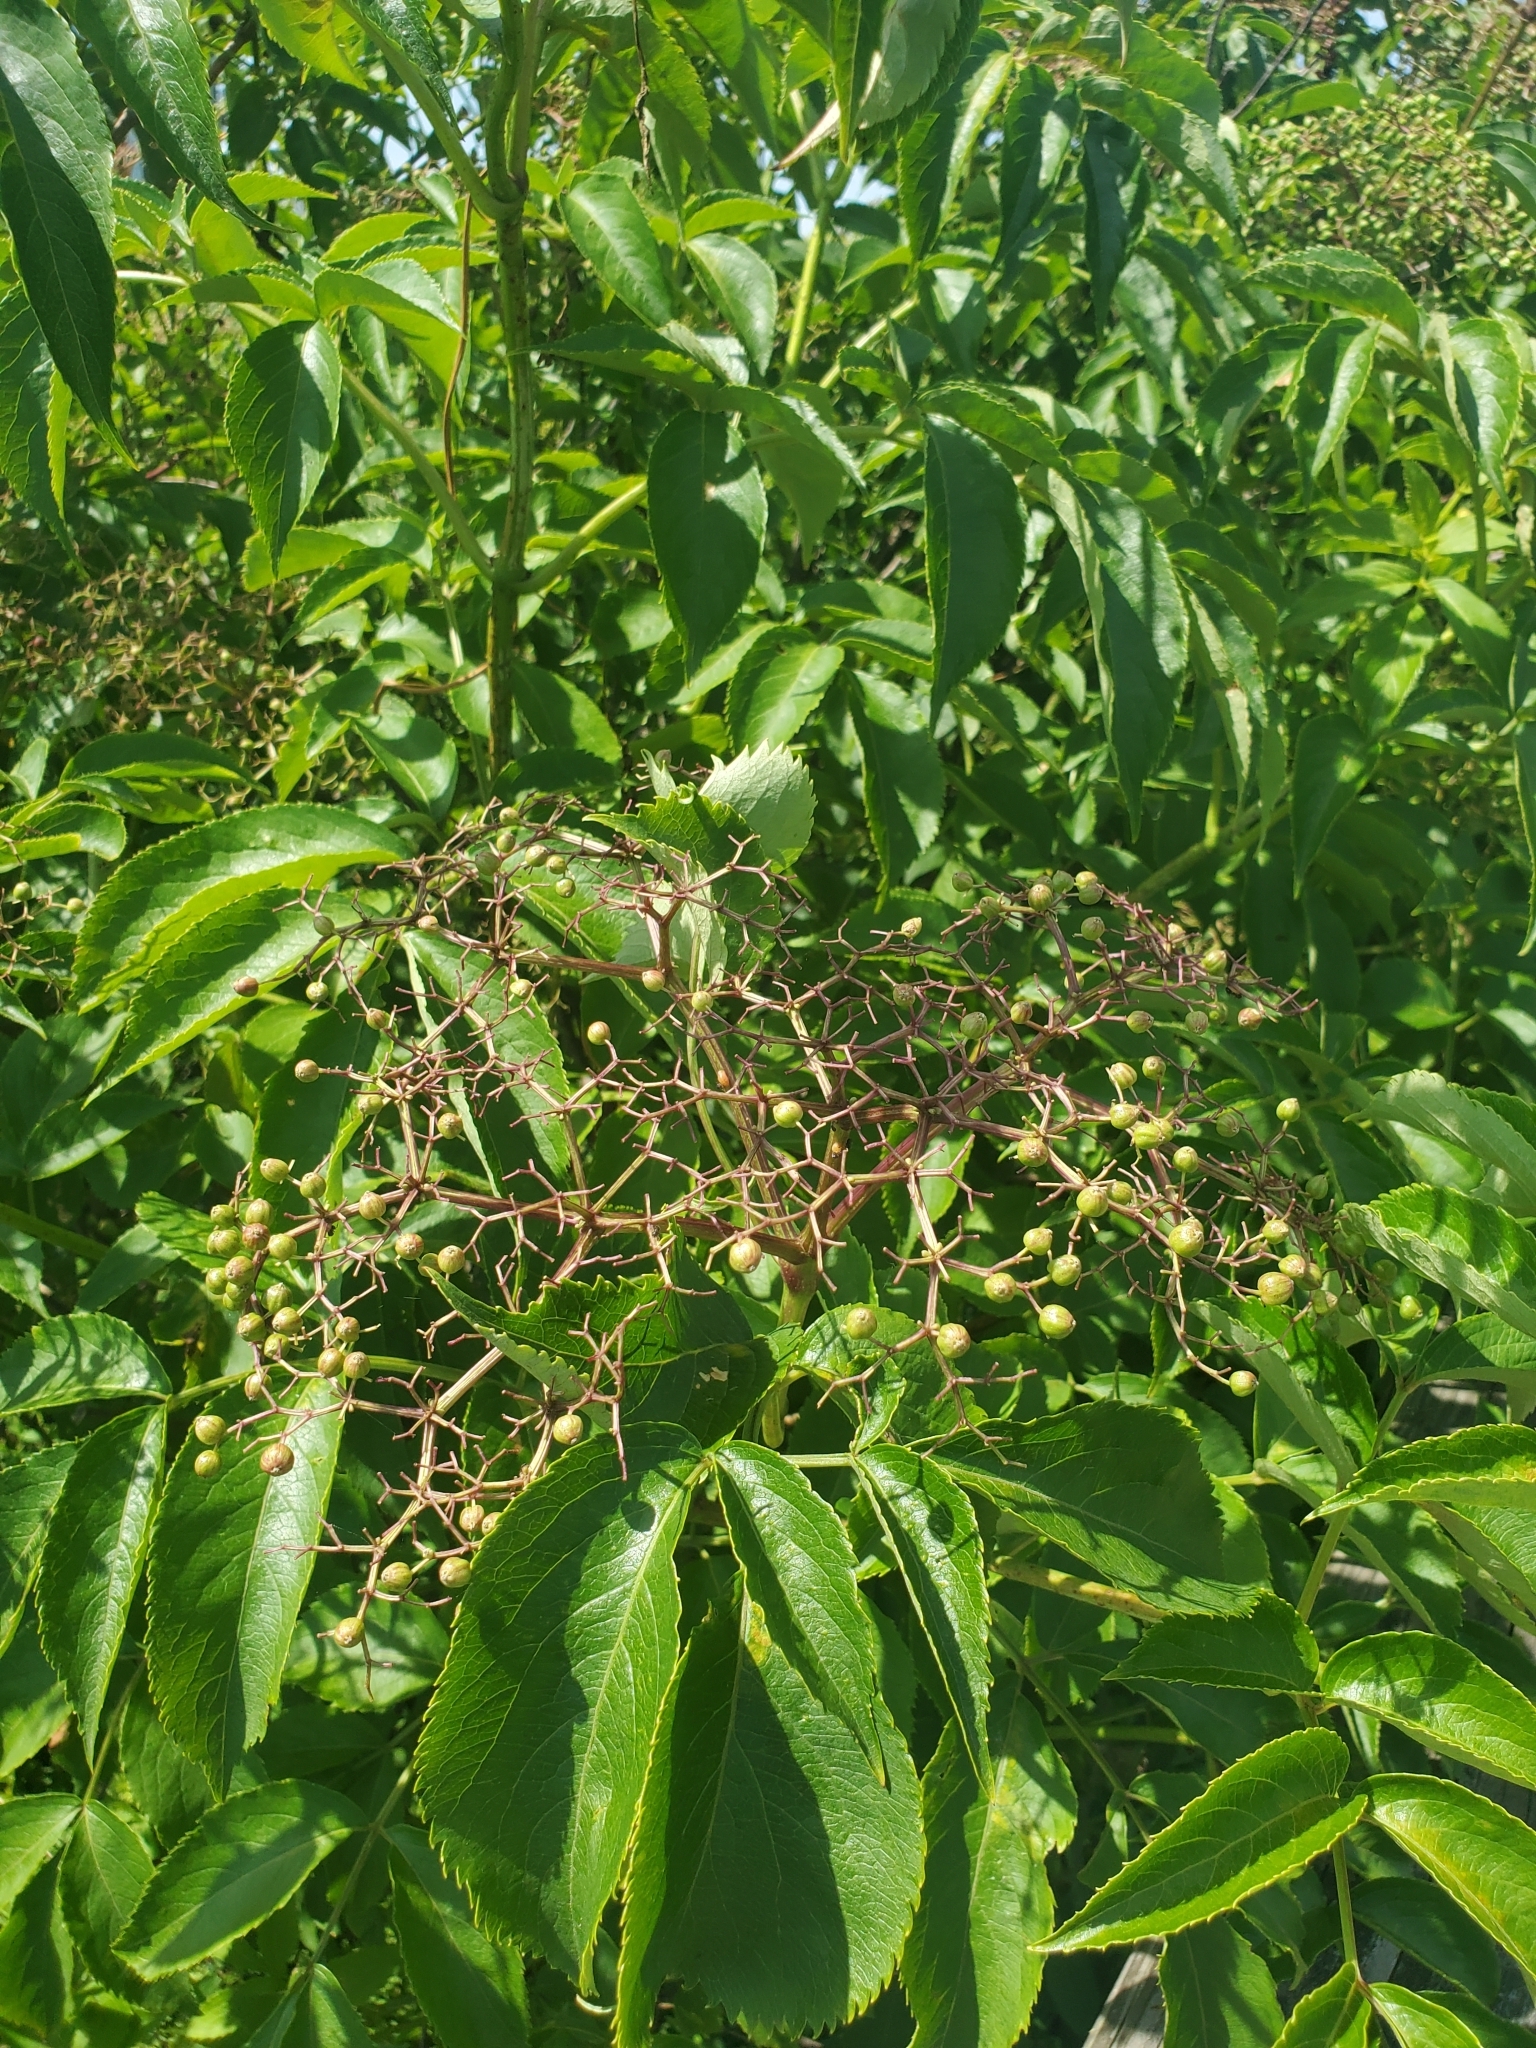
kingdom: Plantae
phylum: Tracheophyta
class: Magnoliopsida
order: Dipsacales
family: Viburnaceae
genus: Sambucus
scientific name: Sambucus canadensis
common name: American elder
